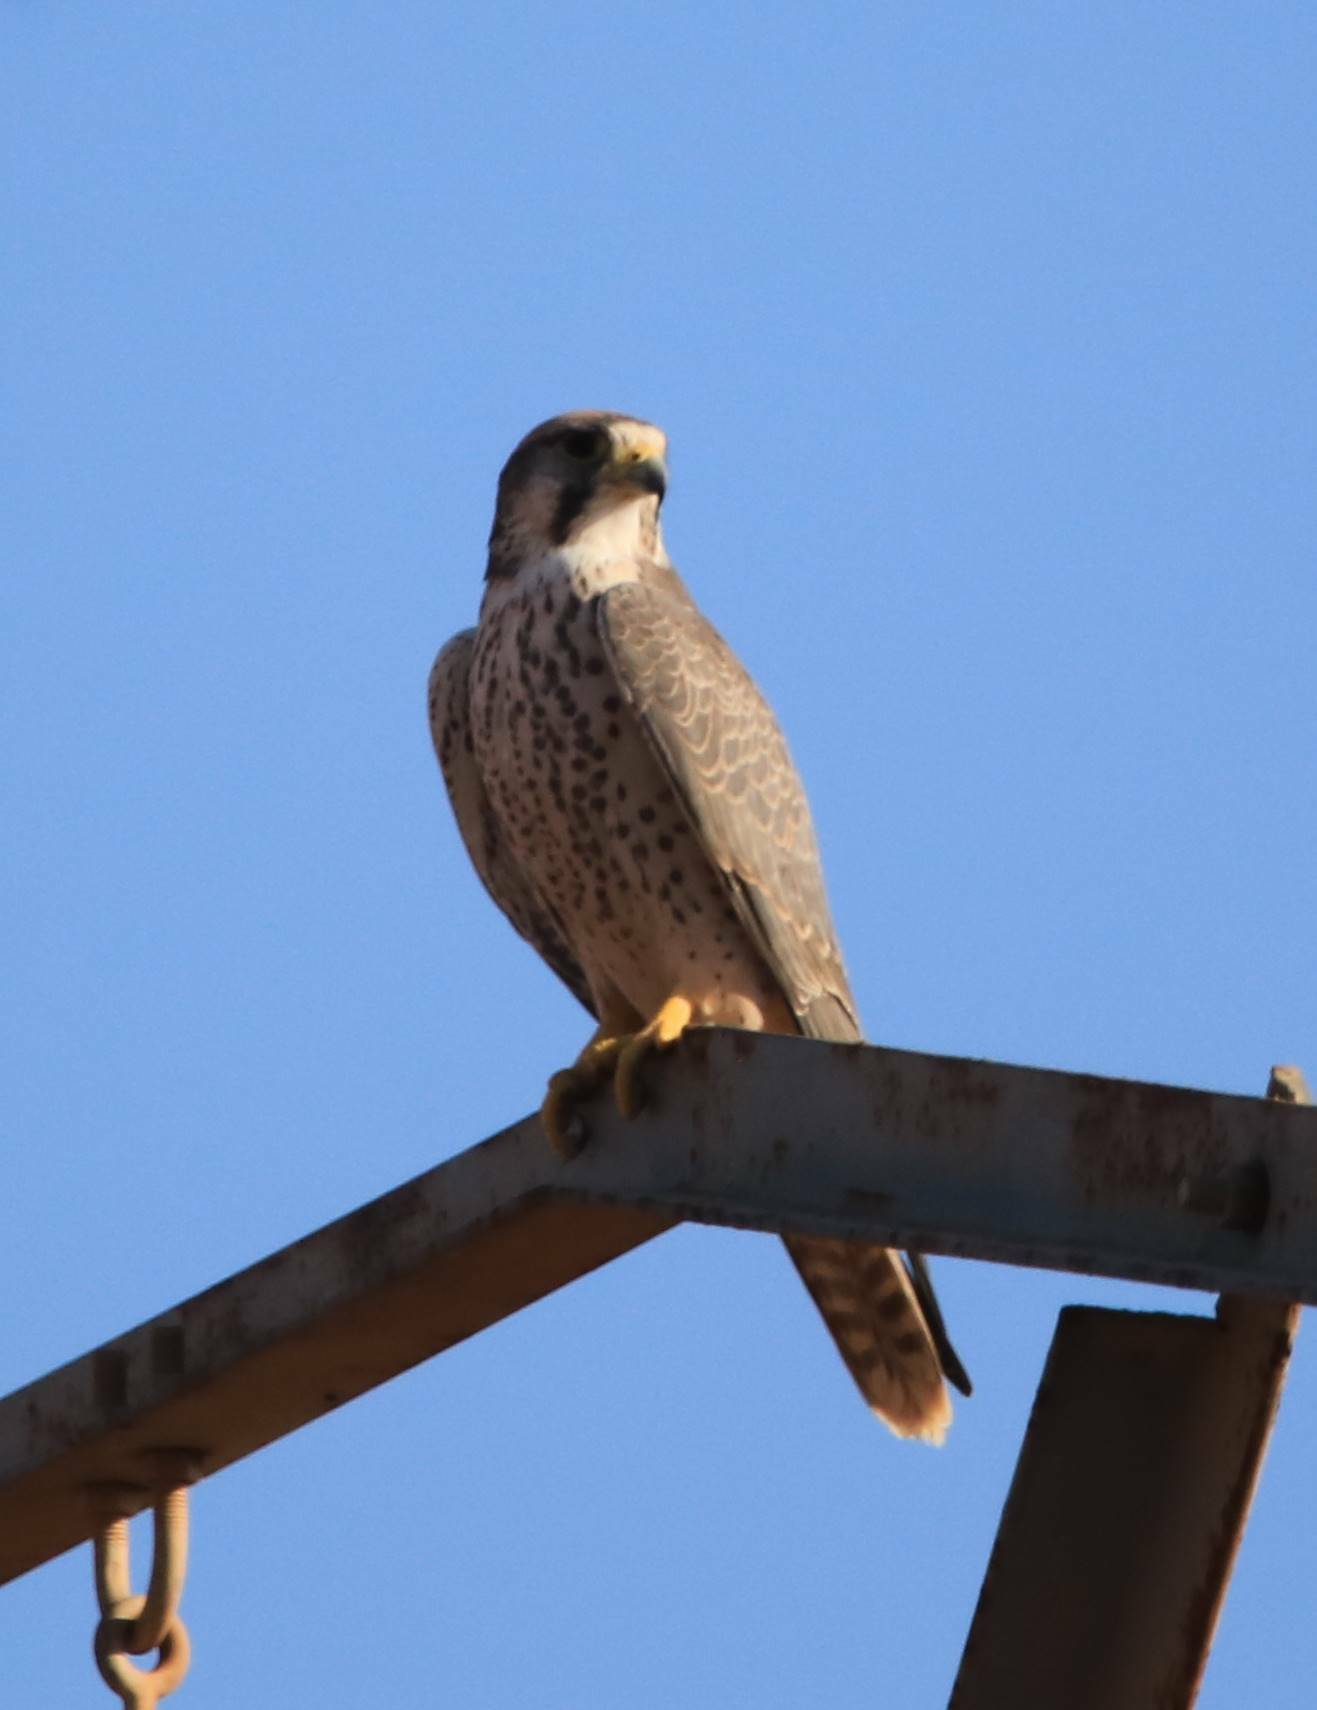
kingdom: Animalia
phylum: Chordata
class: Aves
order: Falconiformes
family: Falconidae
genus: Falco
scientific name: Falco biarmicus
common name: Lanner falcon
